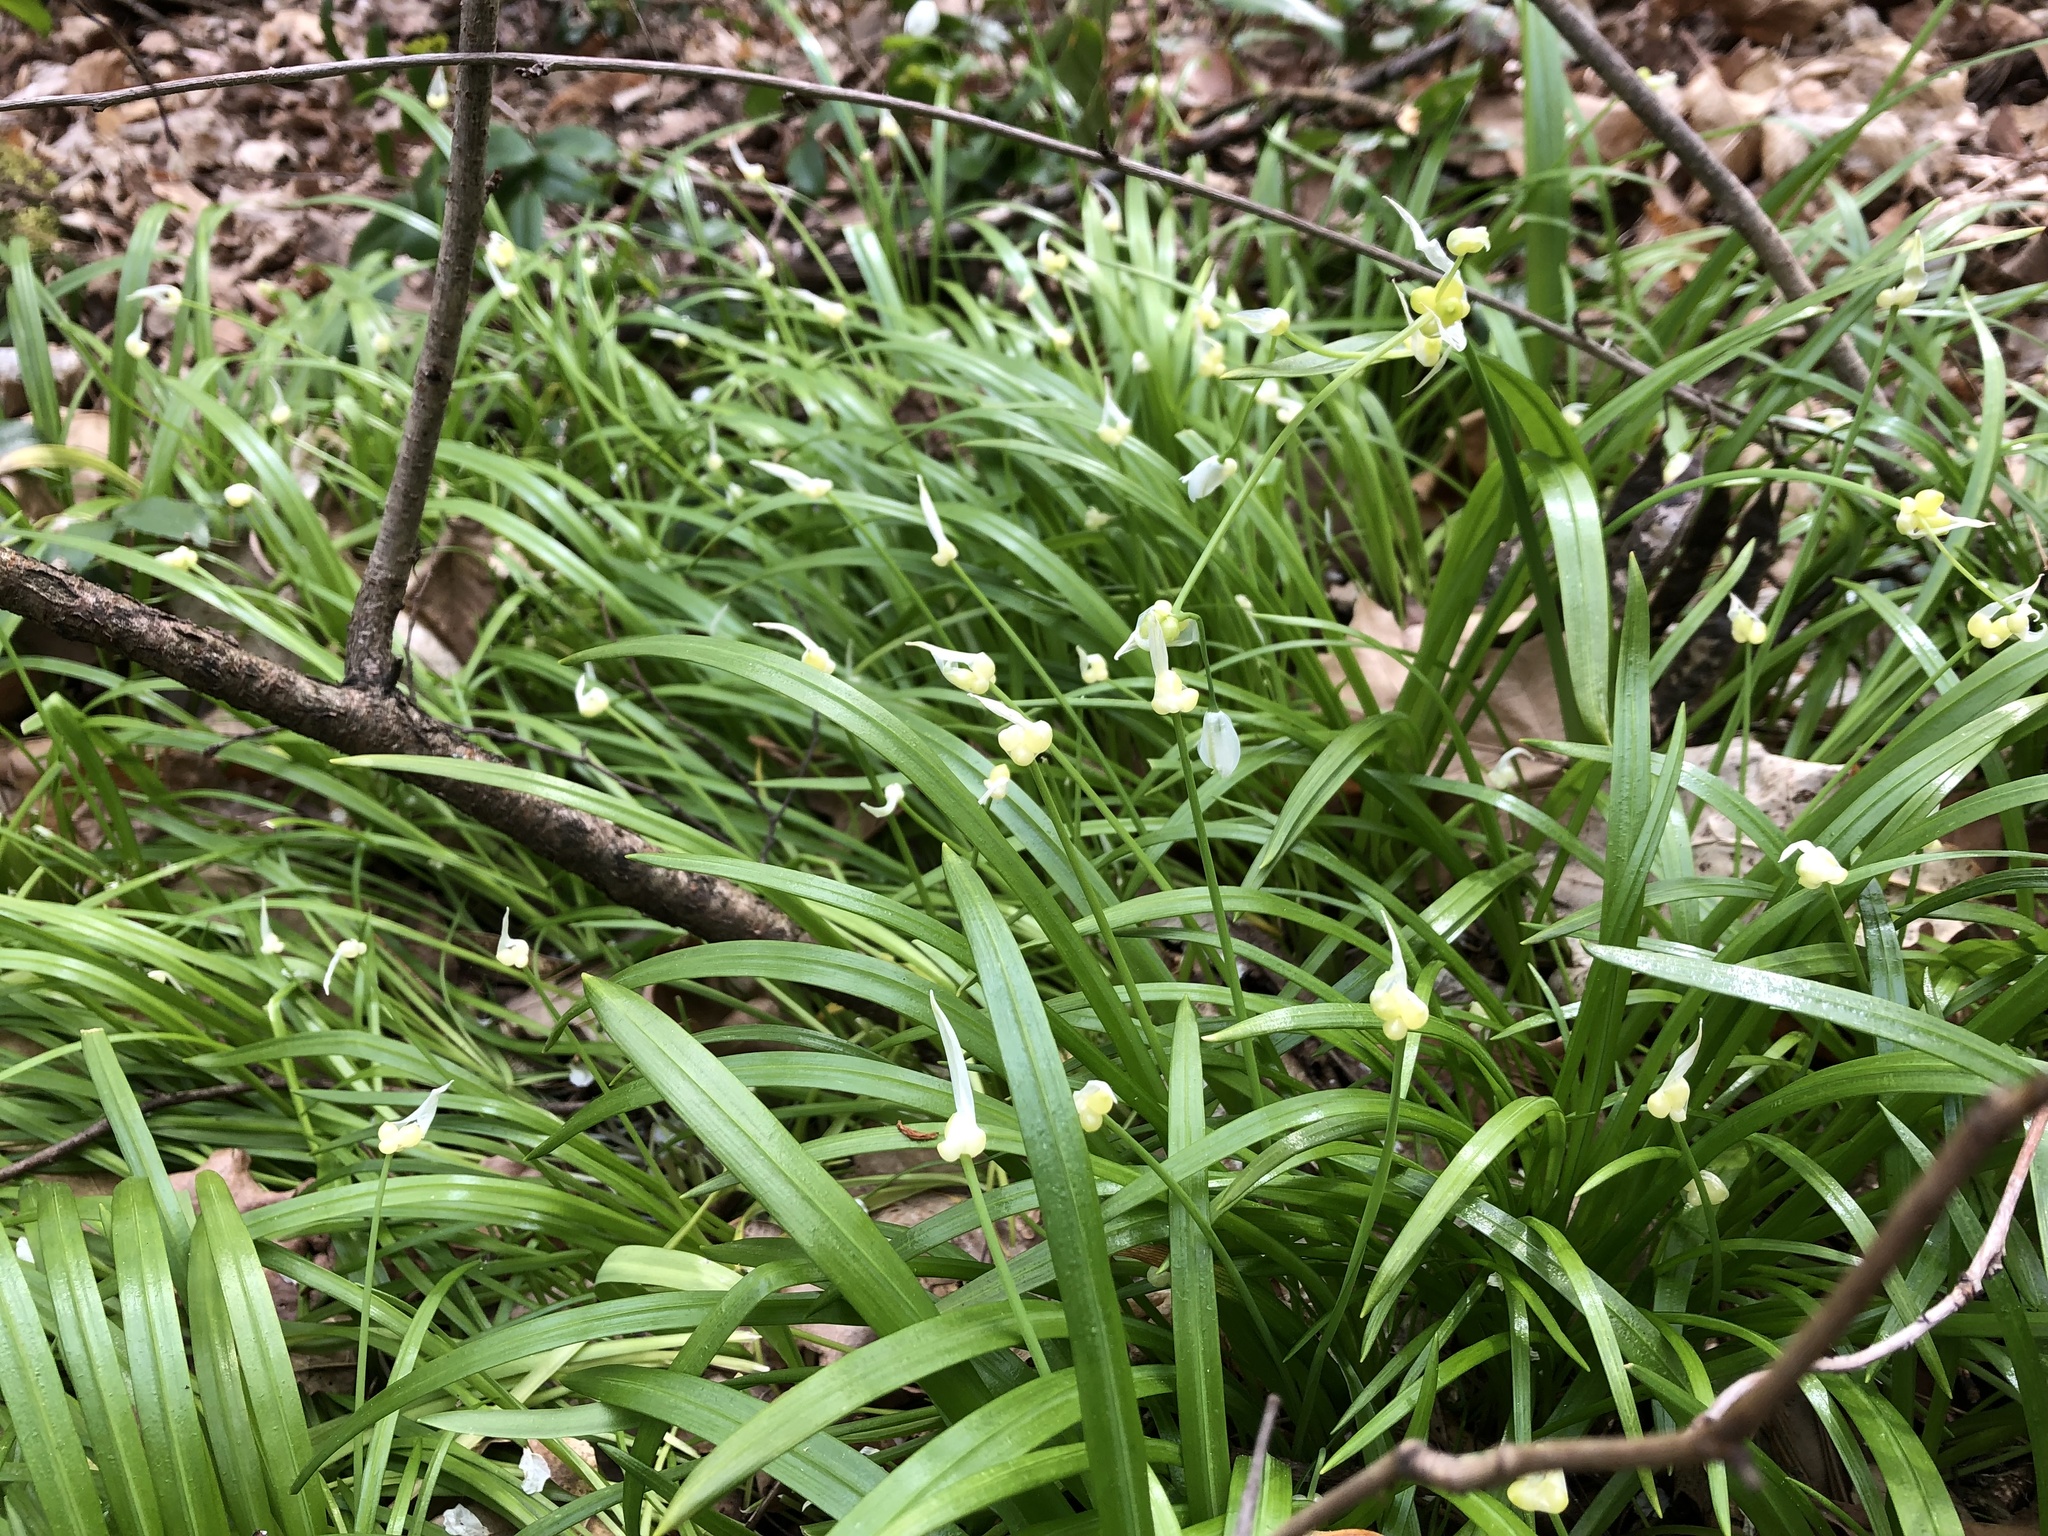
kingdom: Plantae
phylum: Tracheophyta
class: Liliopsida
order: Asparagales
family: Amaryllidaceae
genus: Allium
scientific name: Allium paradoxum
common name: Few-flowered garlic
